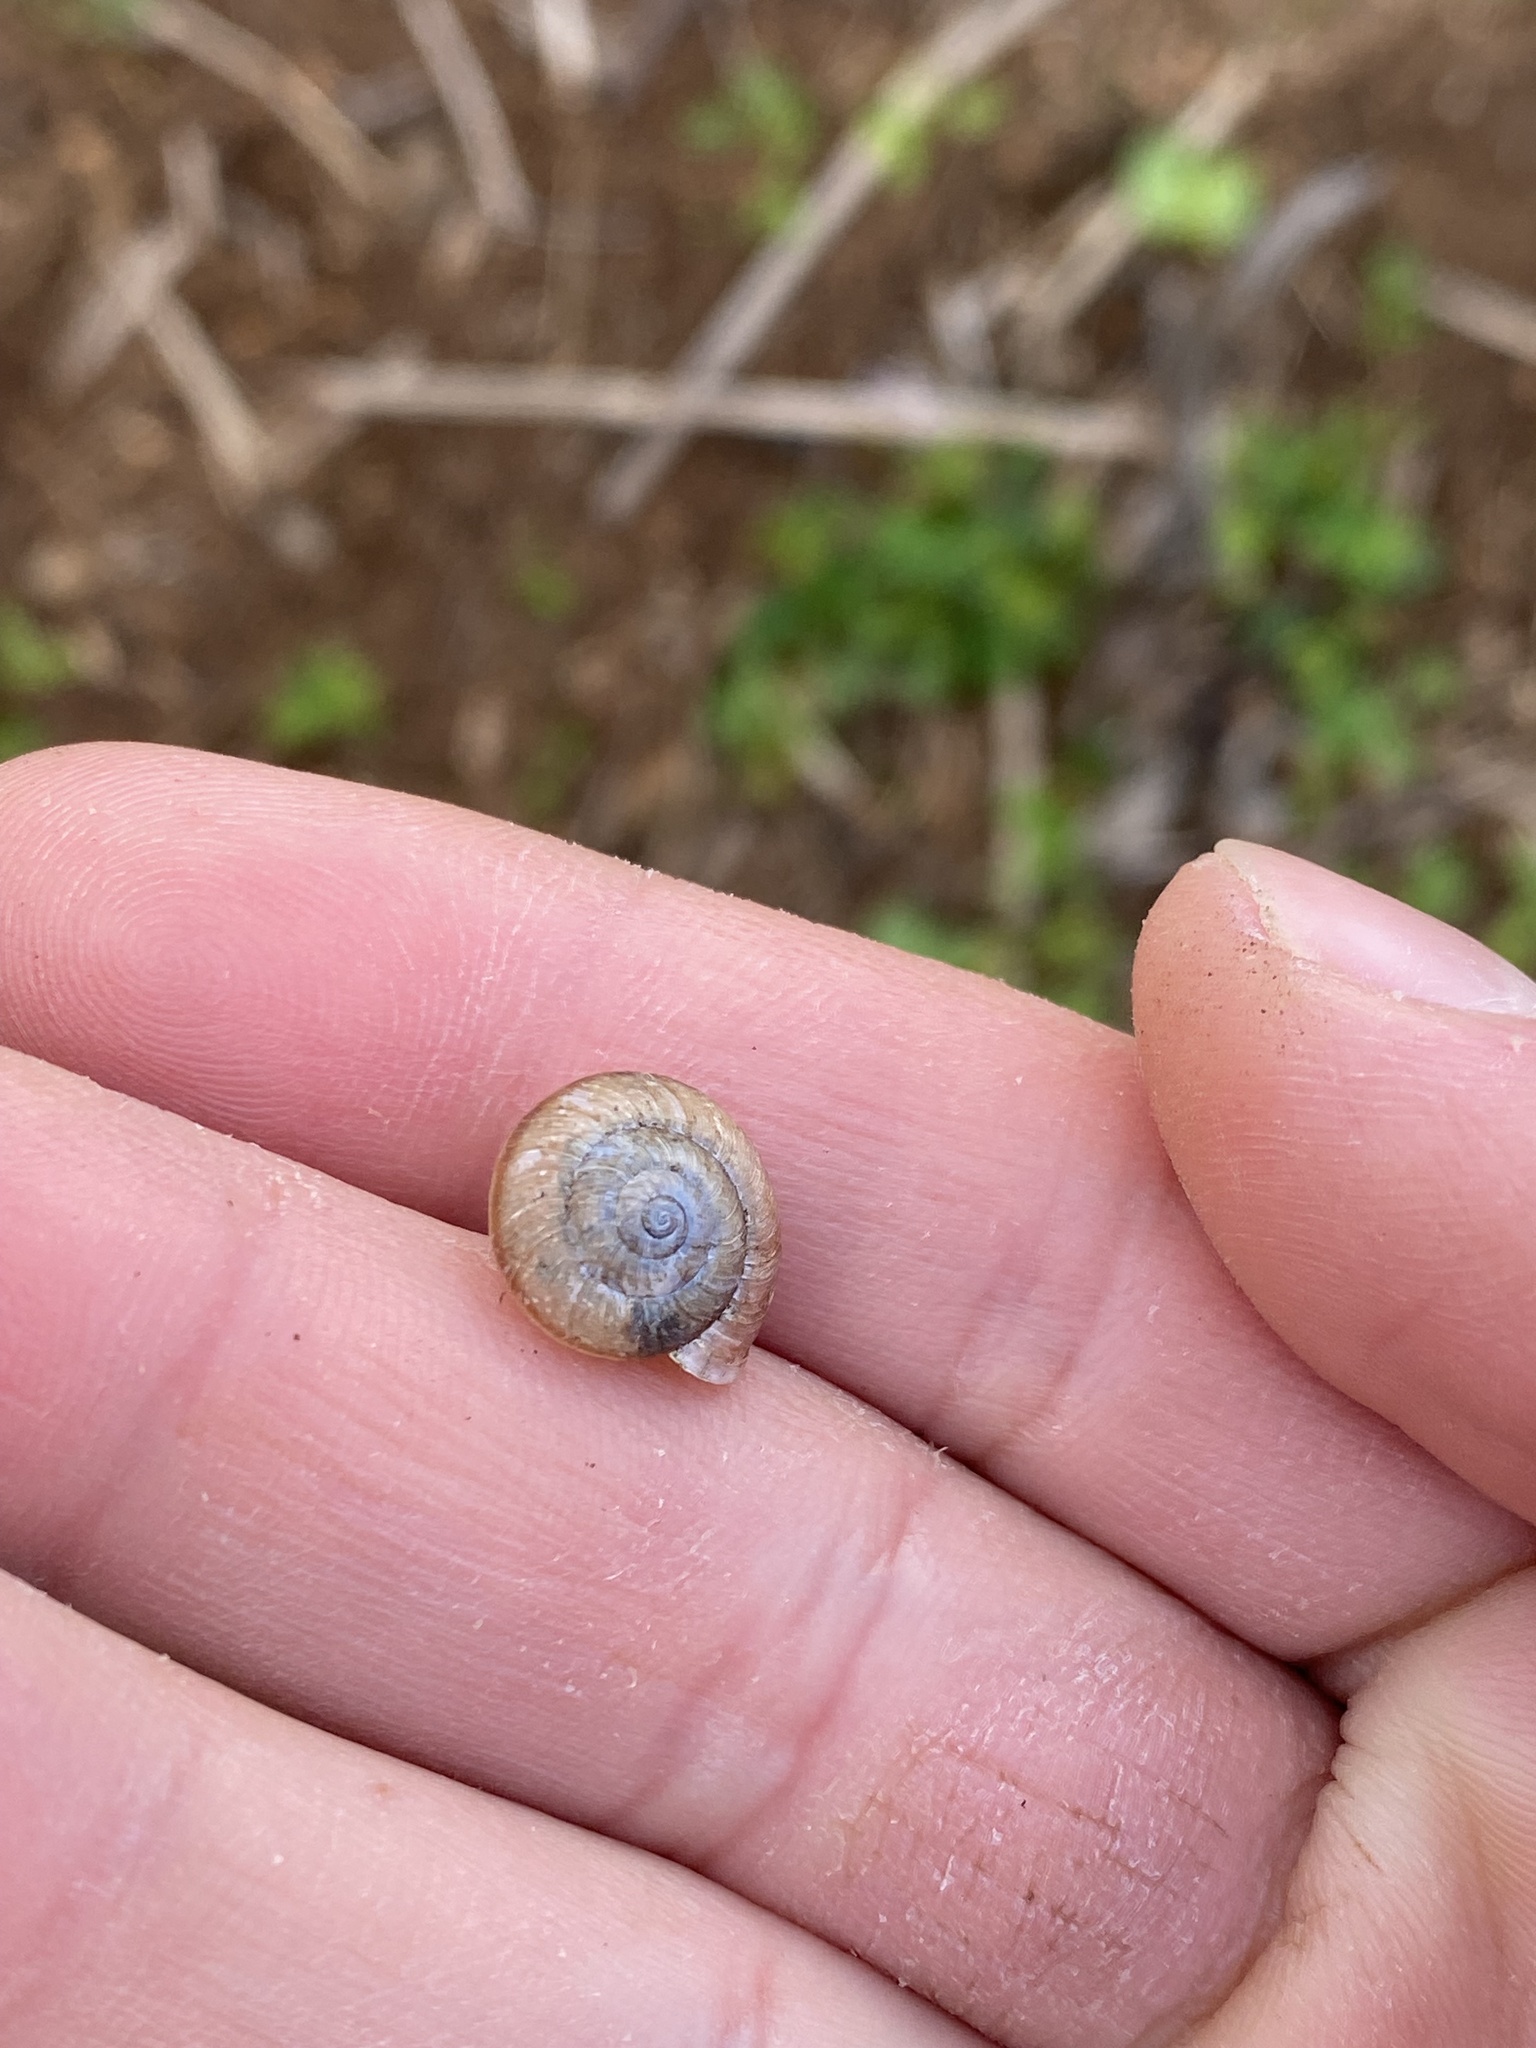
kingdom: Animalia
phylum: Mollusca
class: Gastropoda
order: Stylommatophora
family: Camaenidae
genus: Bradybaena
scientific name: Bradybaena similaris
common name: Asian trampsnail
